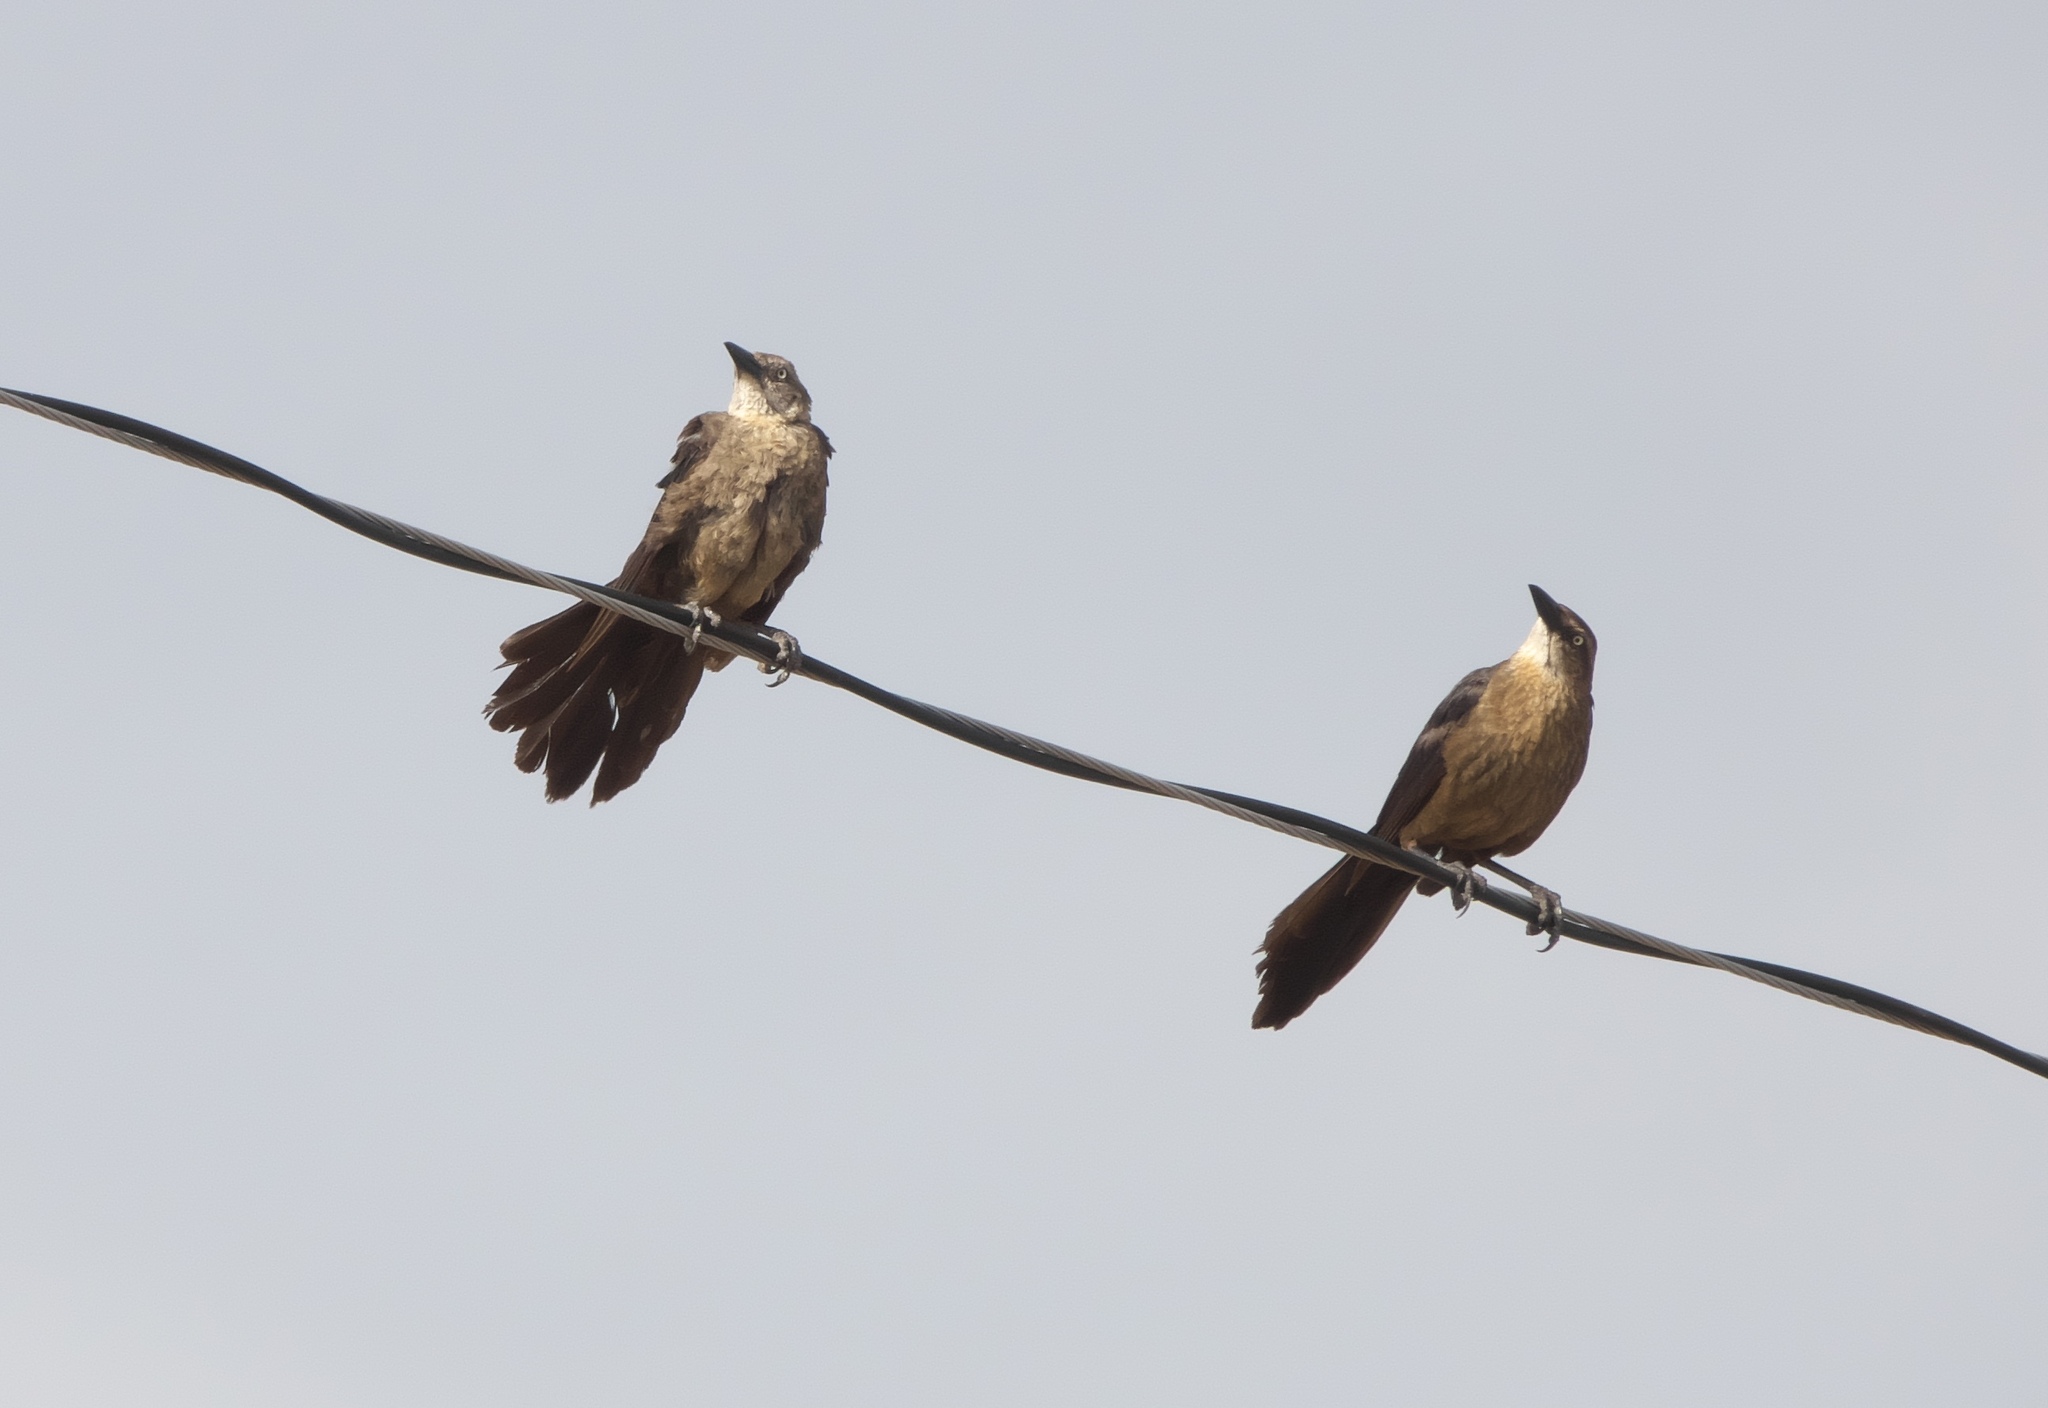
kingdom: Animalia
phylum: Chordata
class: Aves
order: Passeriformes
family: Icteridae
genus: Quiscalus
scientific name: Quiscalus mexicanus
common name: Great-tailed grackle
